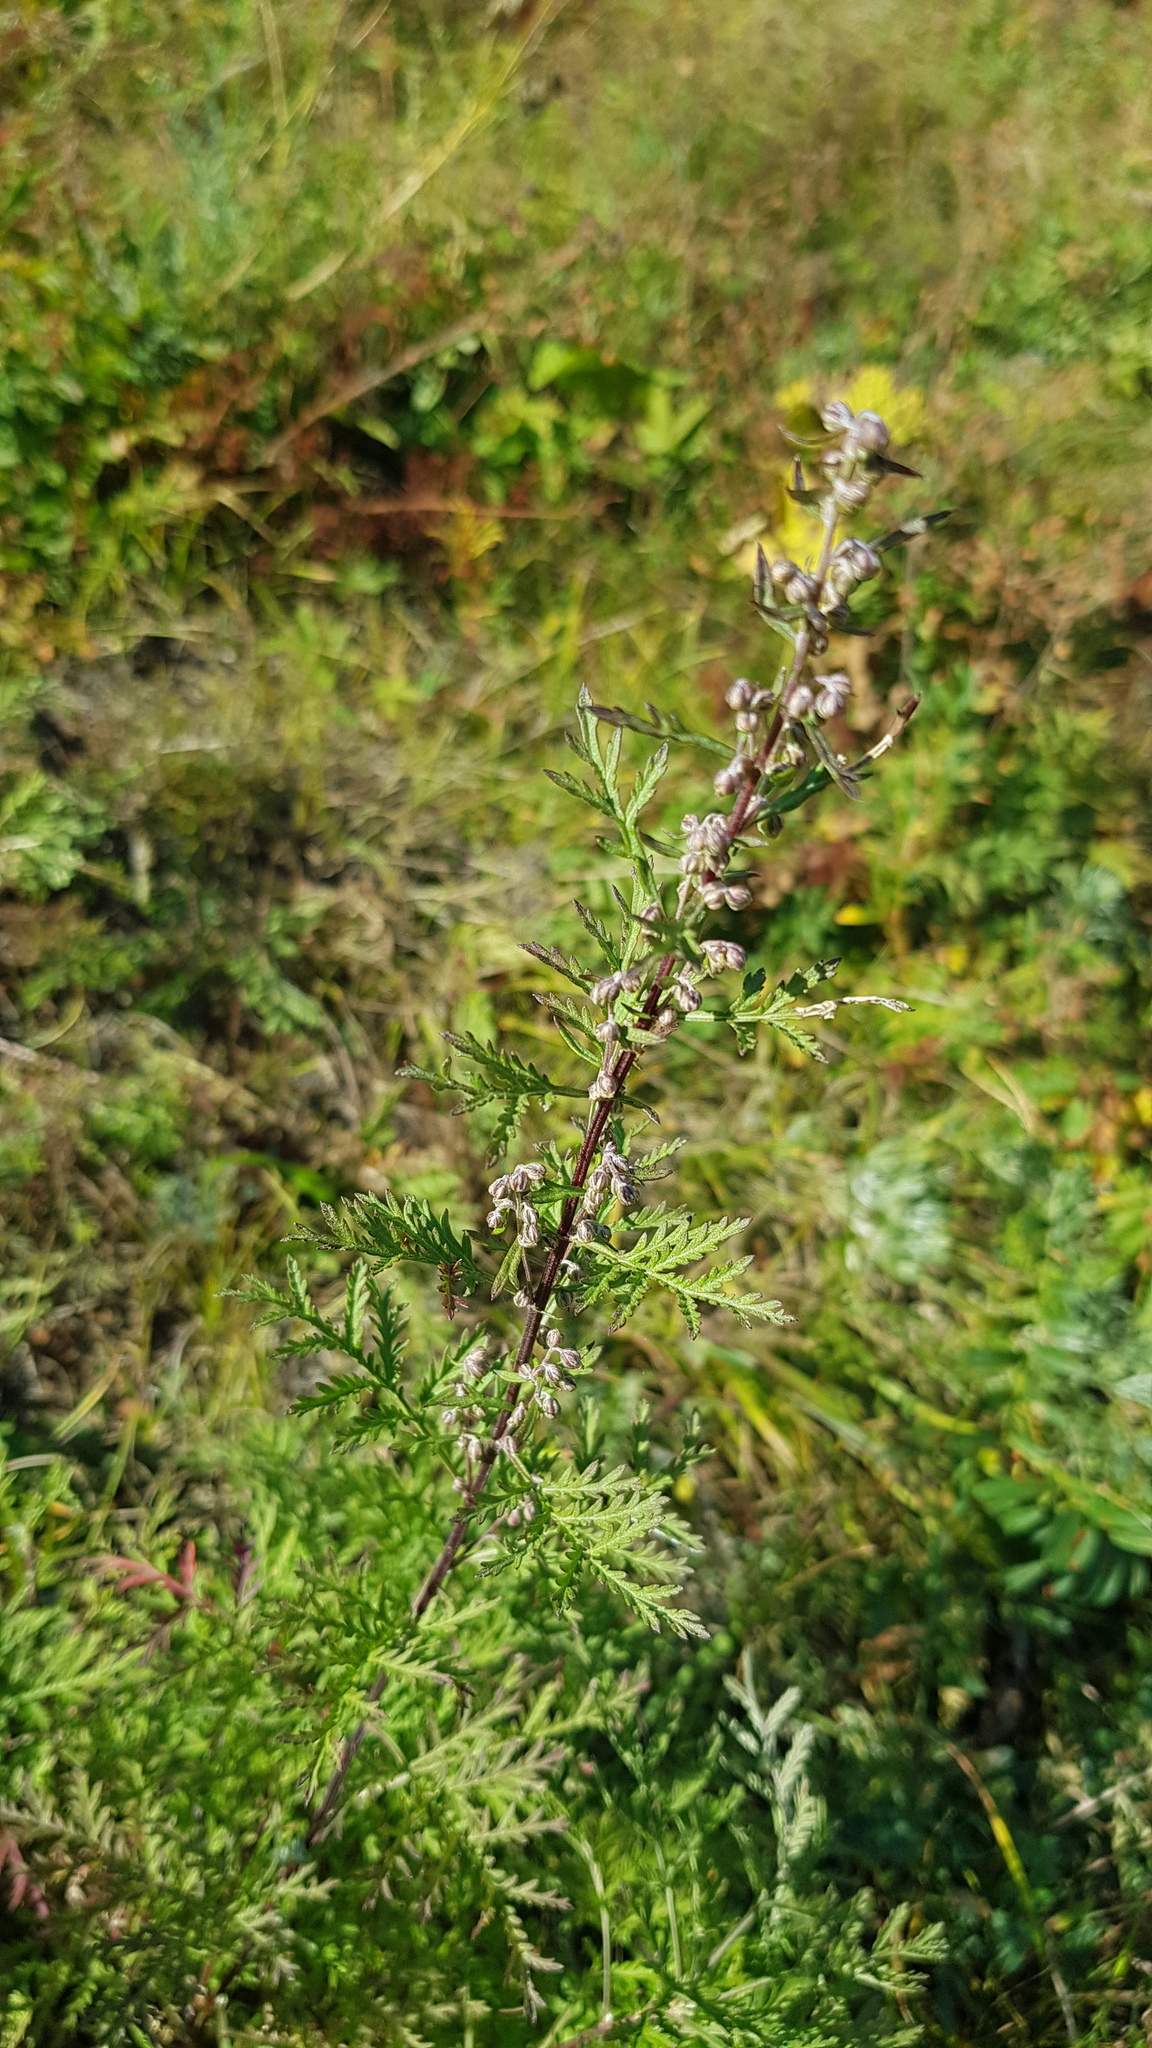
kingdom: Plantae
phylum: Tracheophyta
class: Magnoliopsida
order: Asterales
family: Asteraceae
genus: Artemisia
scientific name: Artemisia tanacetifolia
